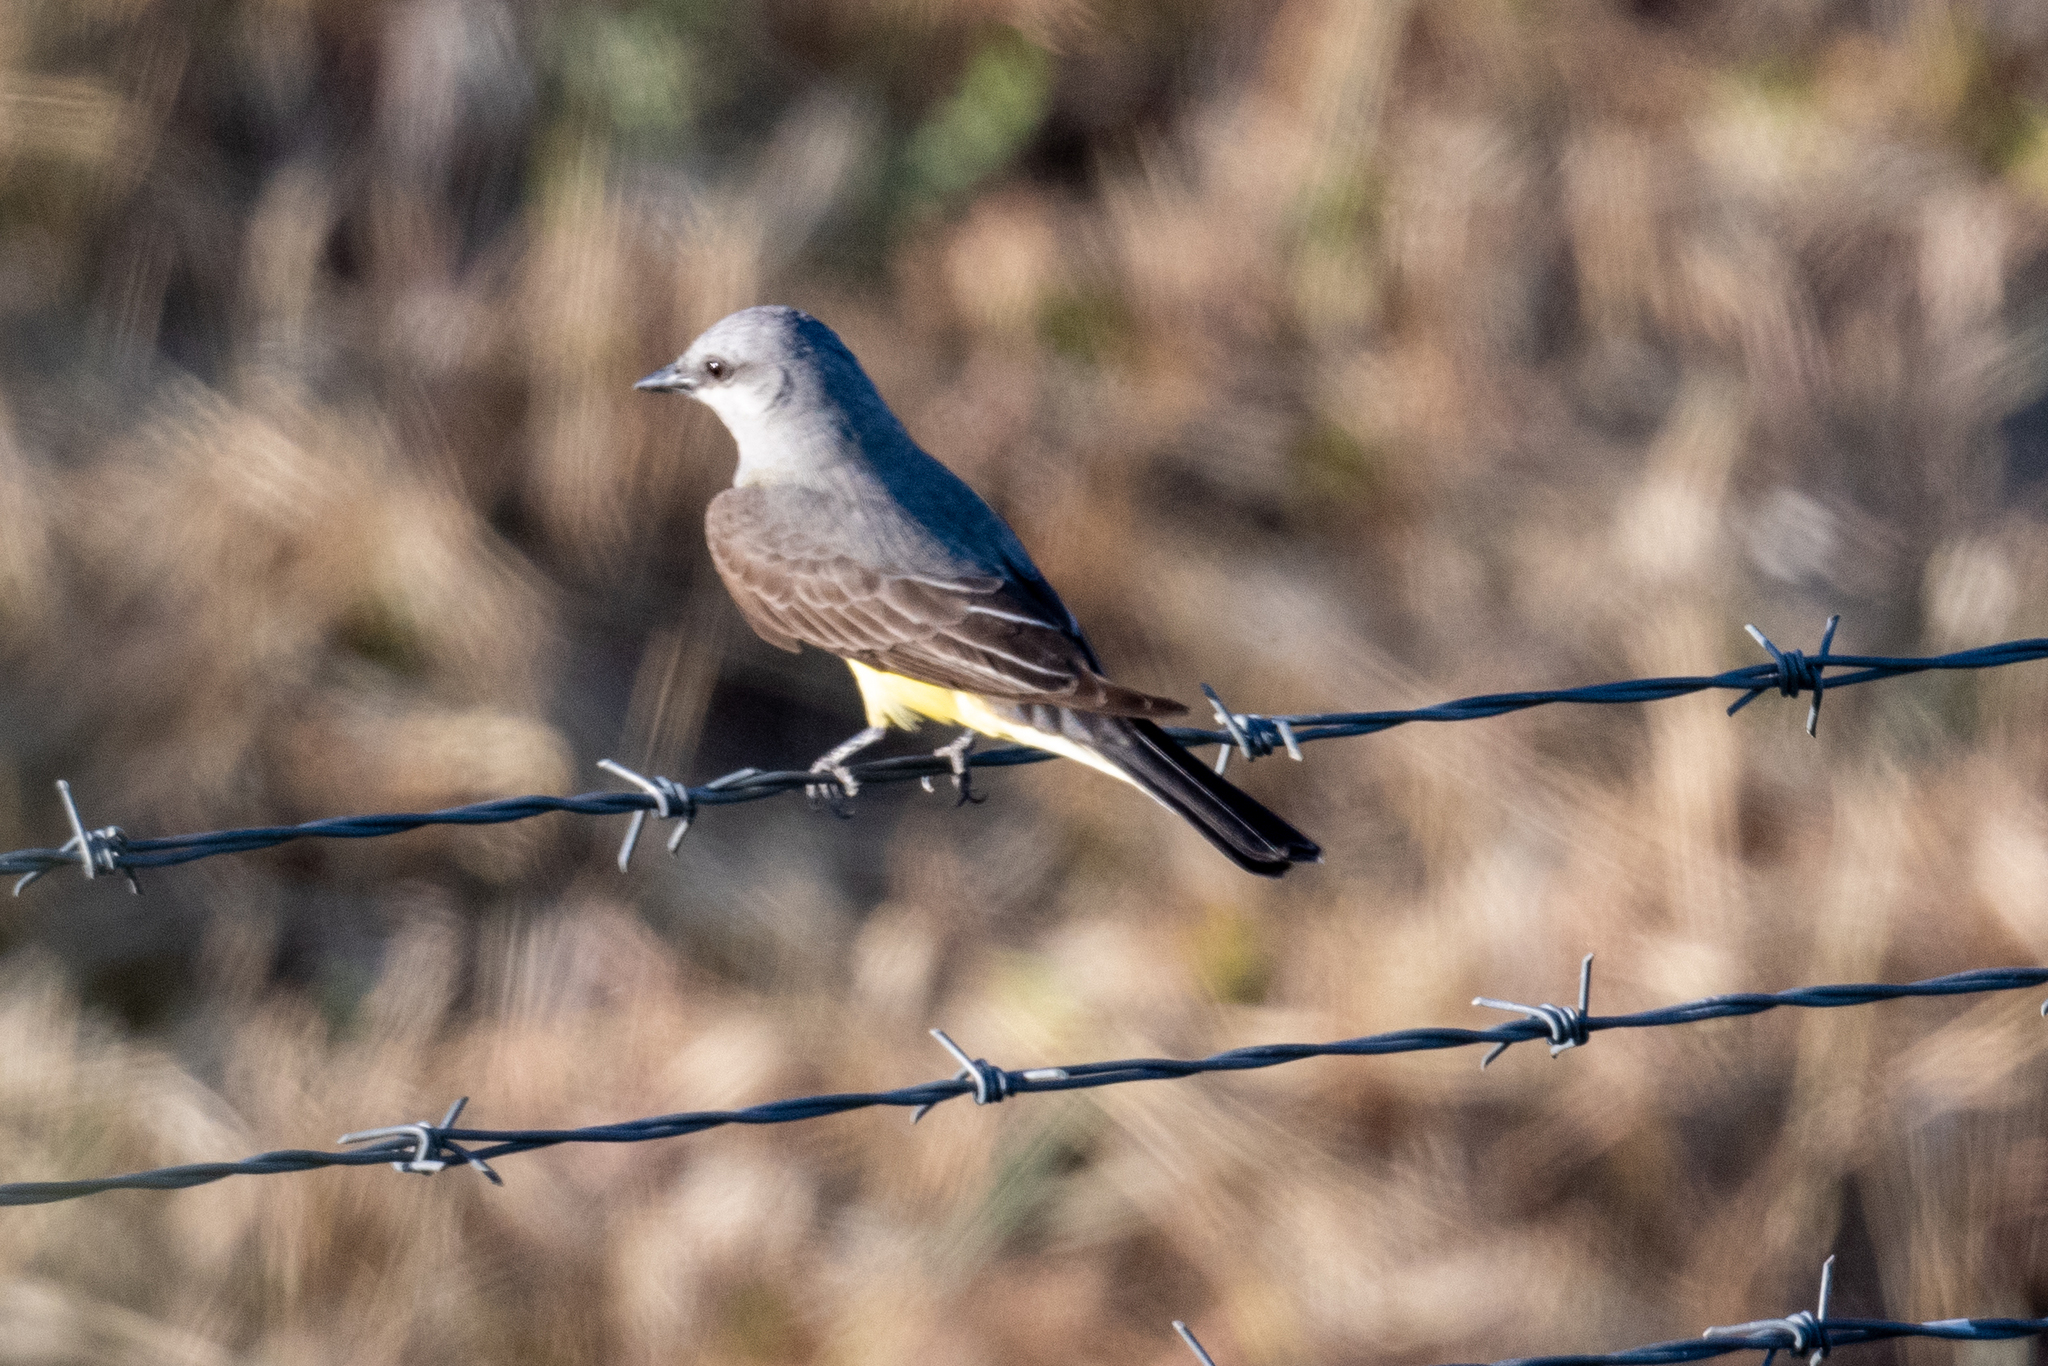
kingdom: Animalia
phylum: Chordata
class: Aves
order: Passeriformes
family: Tyrannidae
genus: Tyrannus
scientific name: Tyrannus verticalis
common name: Western kingbird
